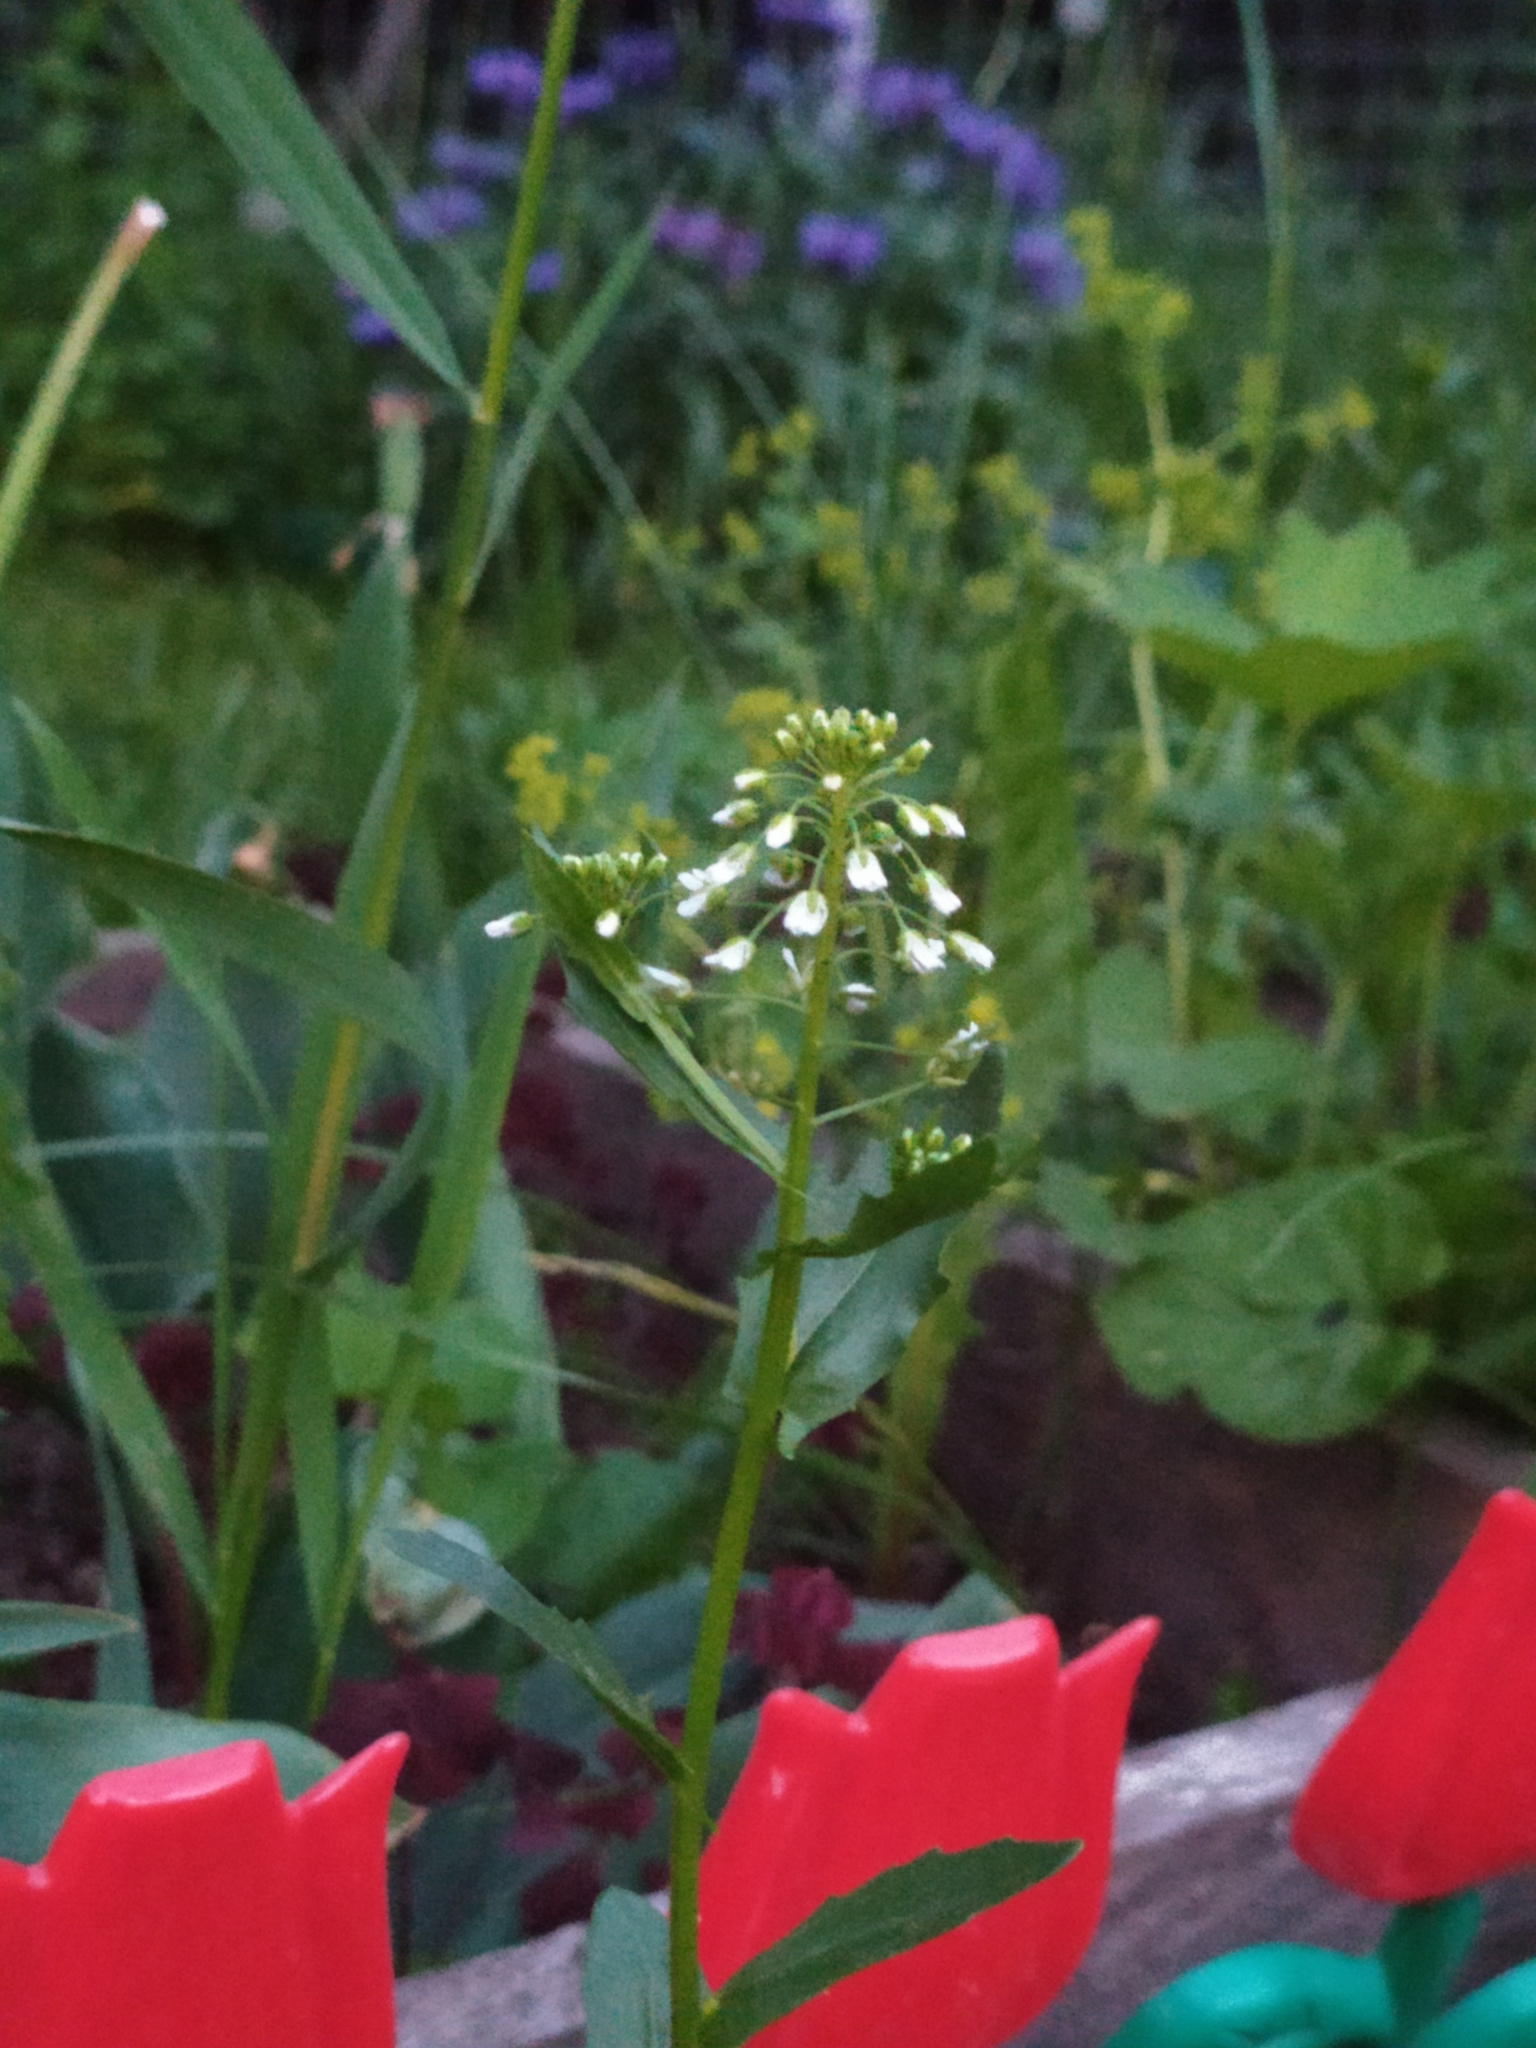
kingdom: Plantae
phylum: Tracheophyta
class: Magnoliopsida
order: Brassicales
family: Brassicaceae
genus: Thlaspi
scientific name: Thlaspi arvense
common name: Field pennycress
